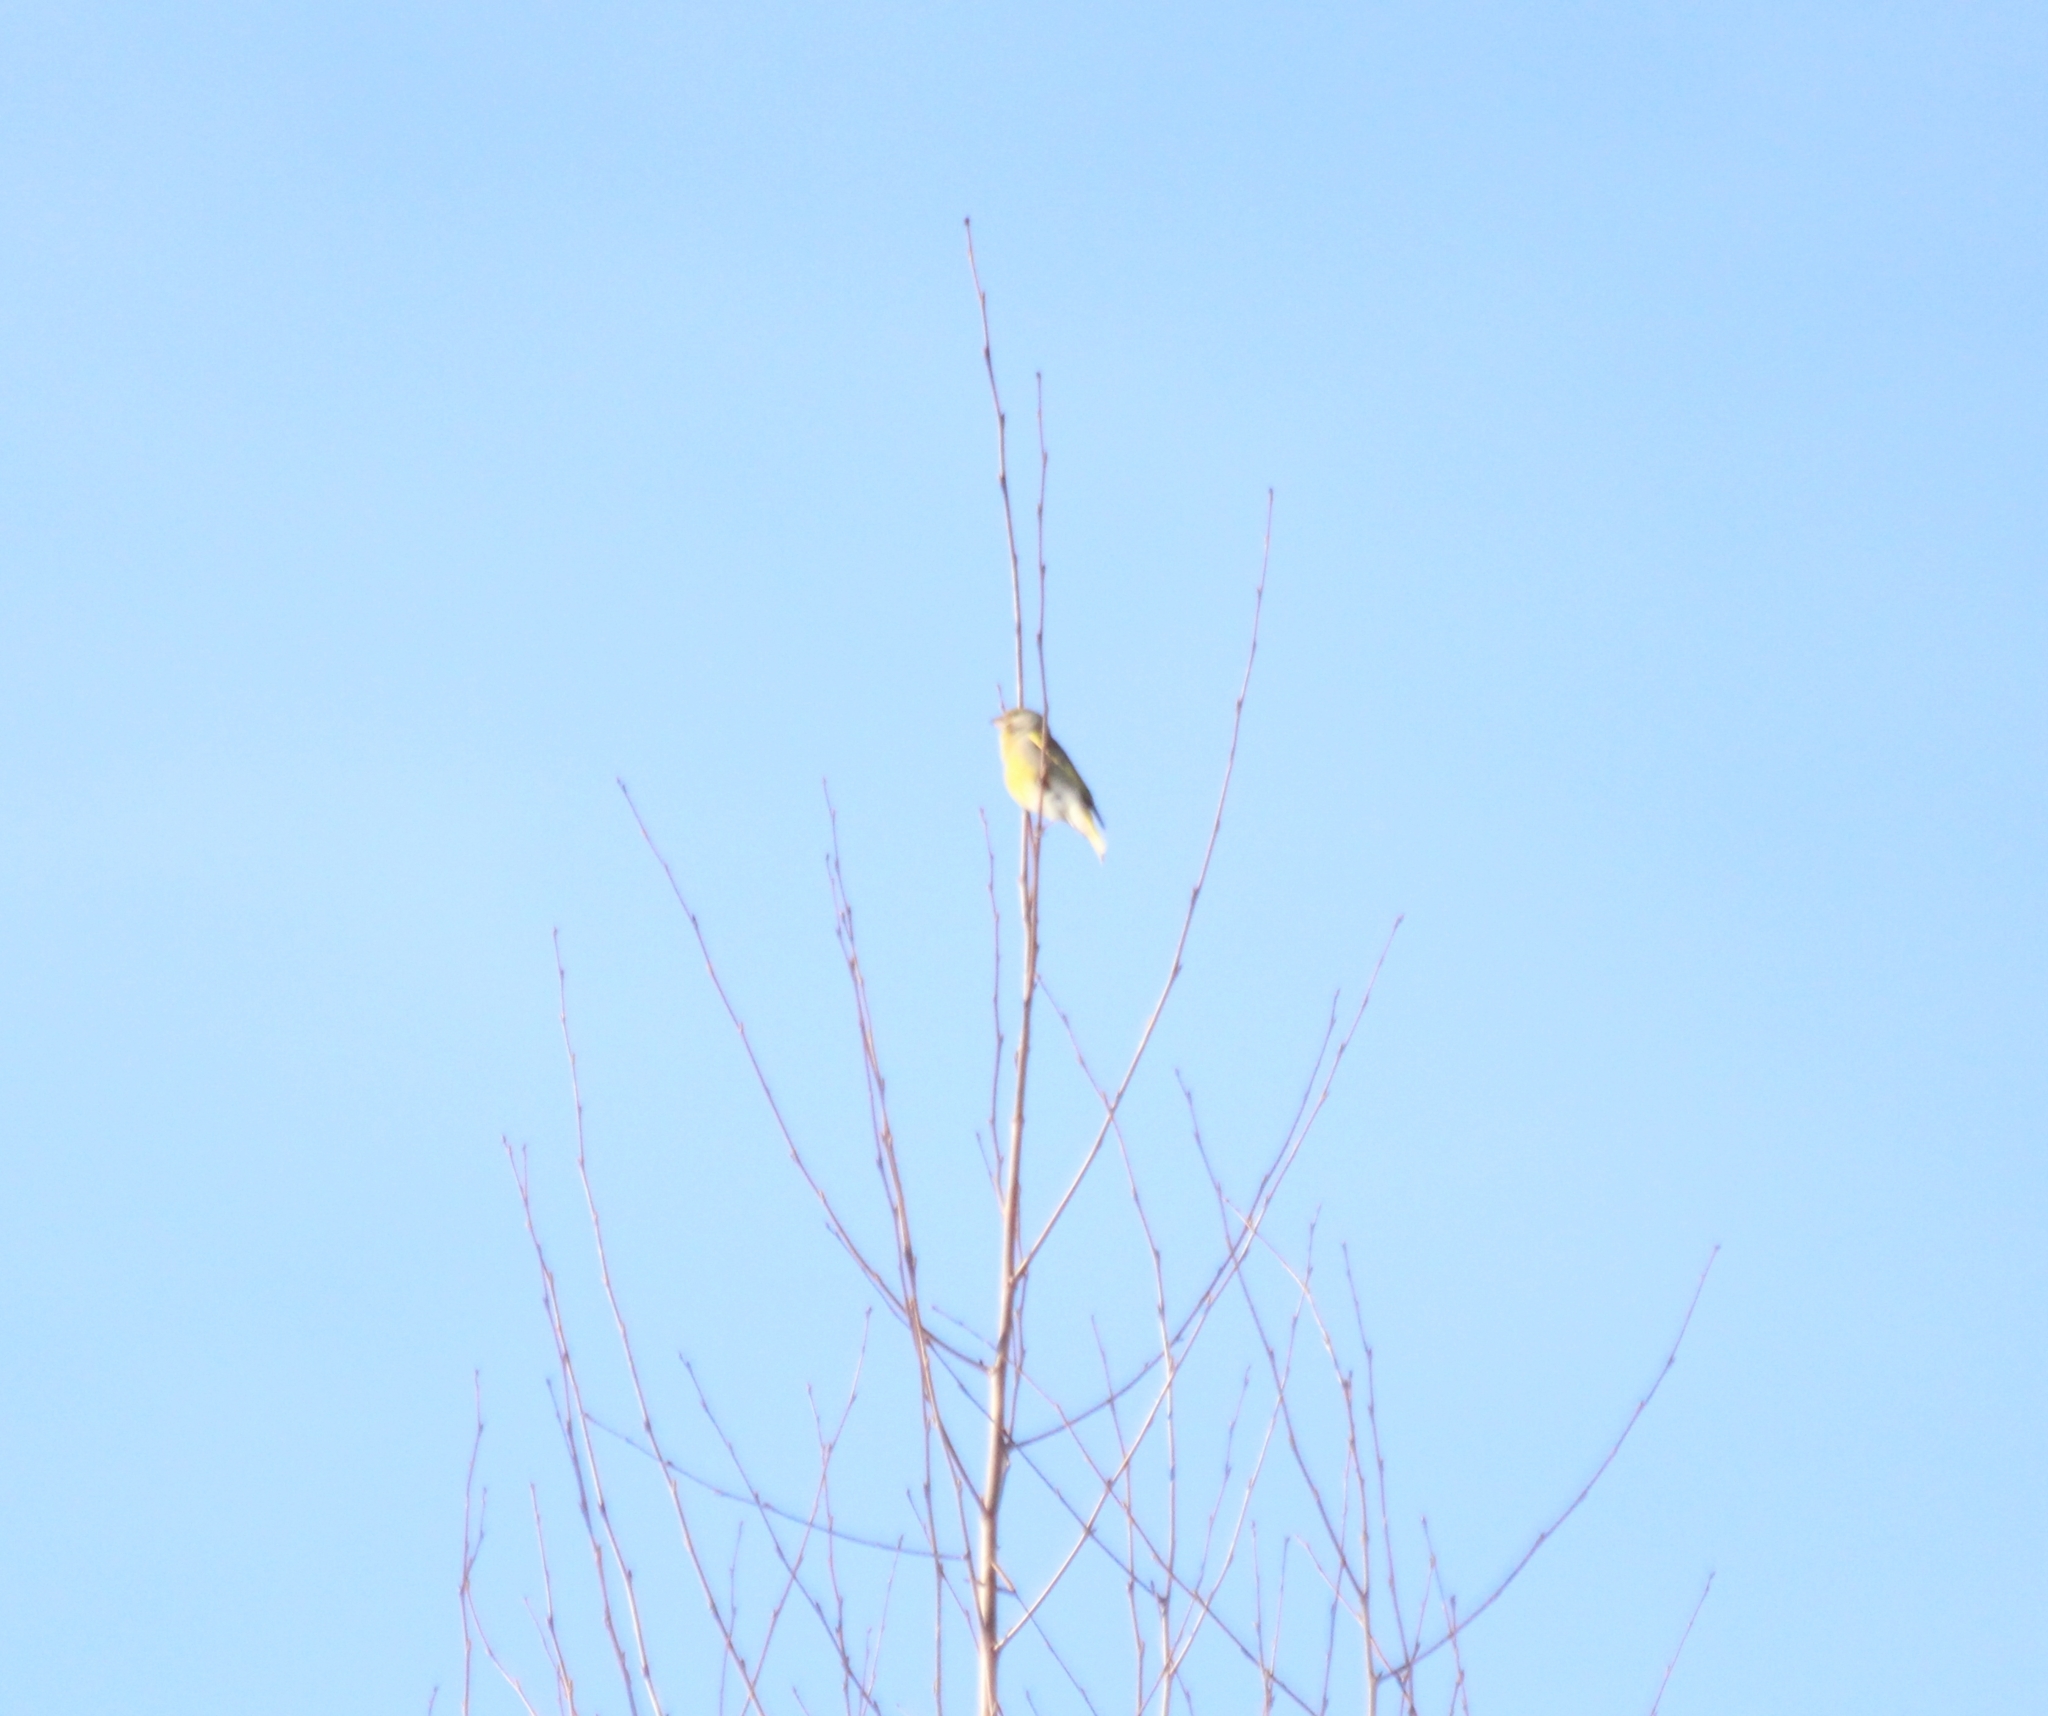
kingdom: Plantae
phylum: Tracheophyta
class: Liliopsida
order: Poales
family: Poaceae
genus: Chloris
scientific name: Chloris chloris
